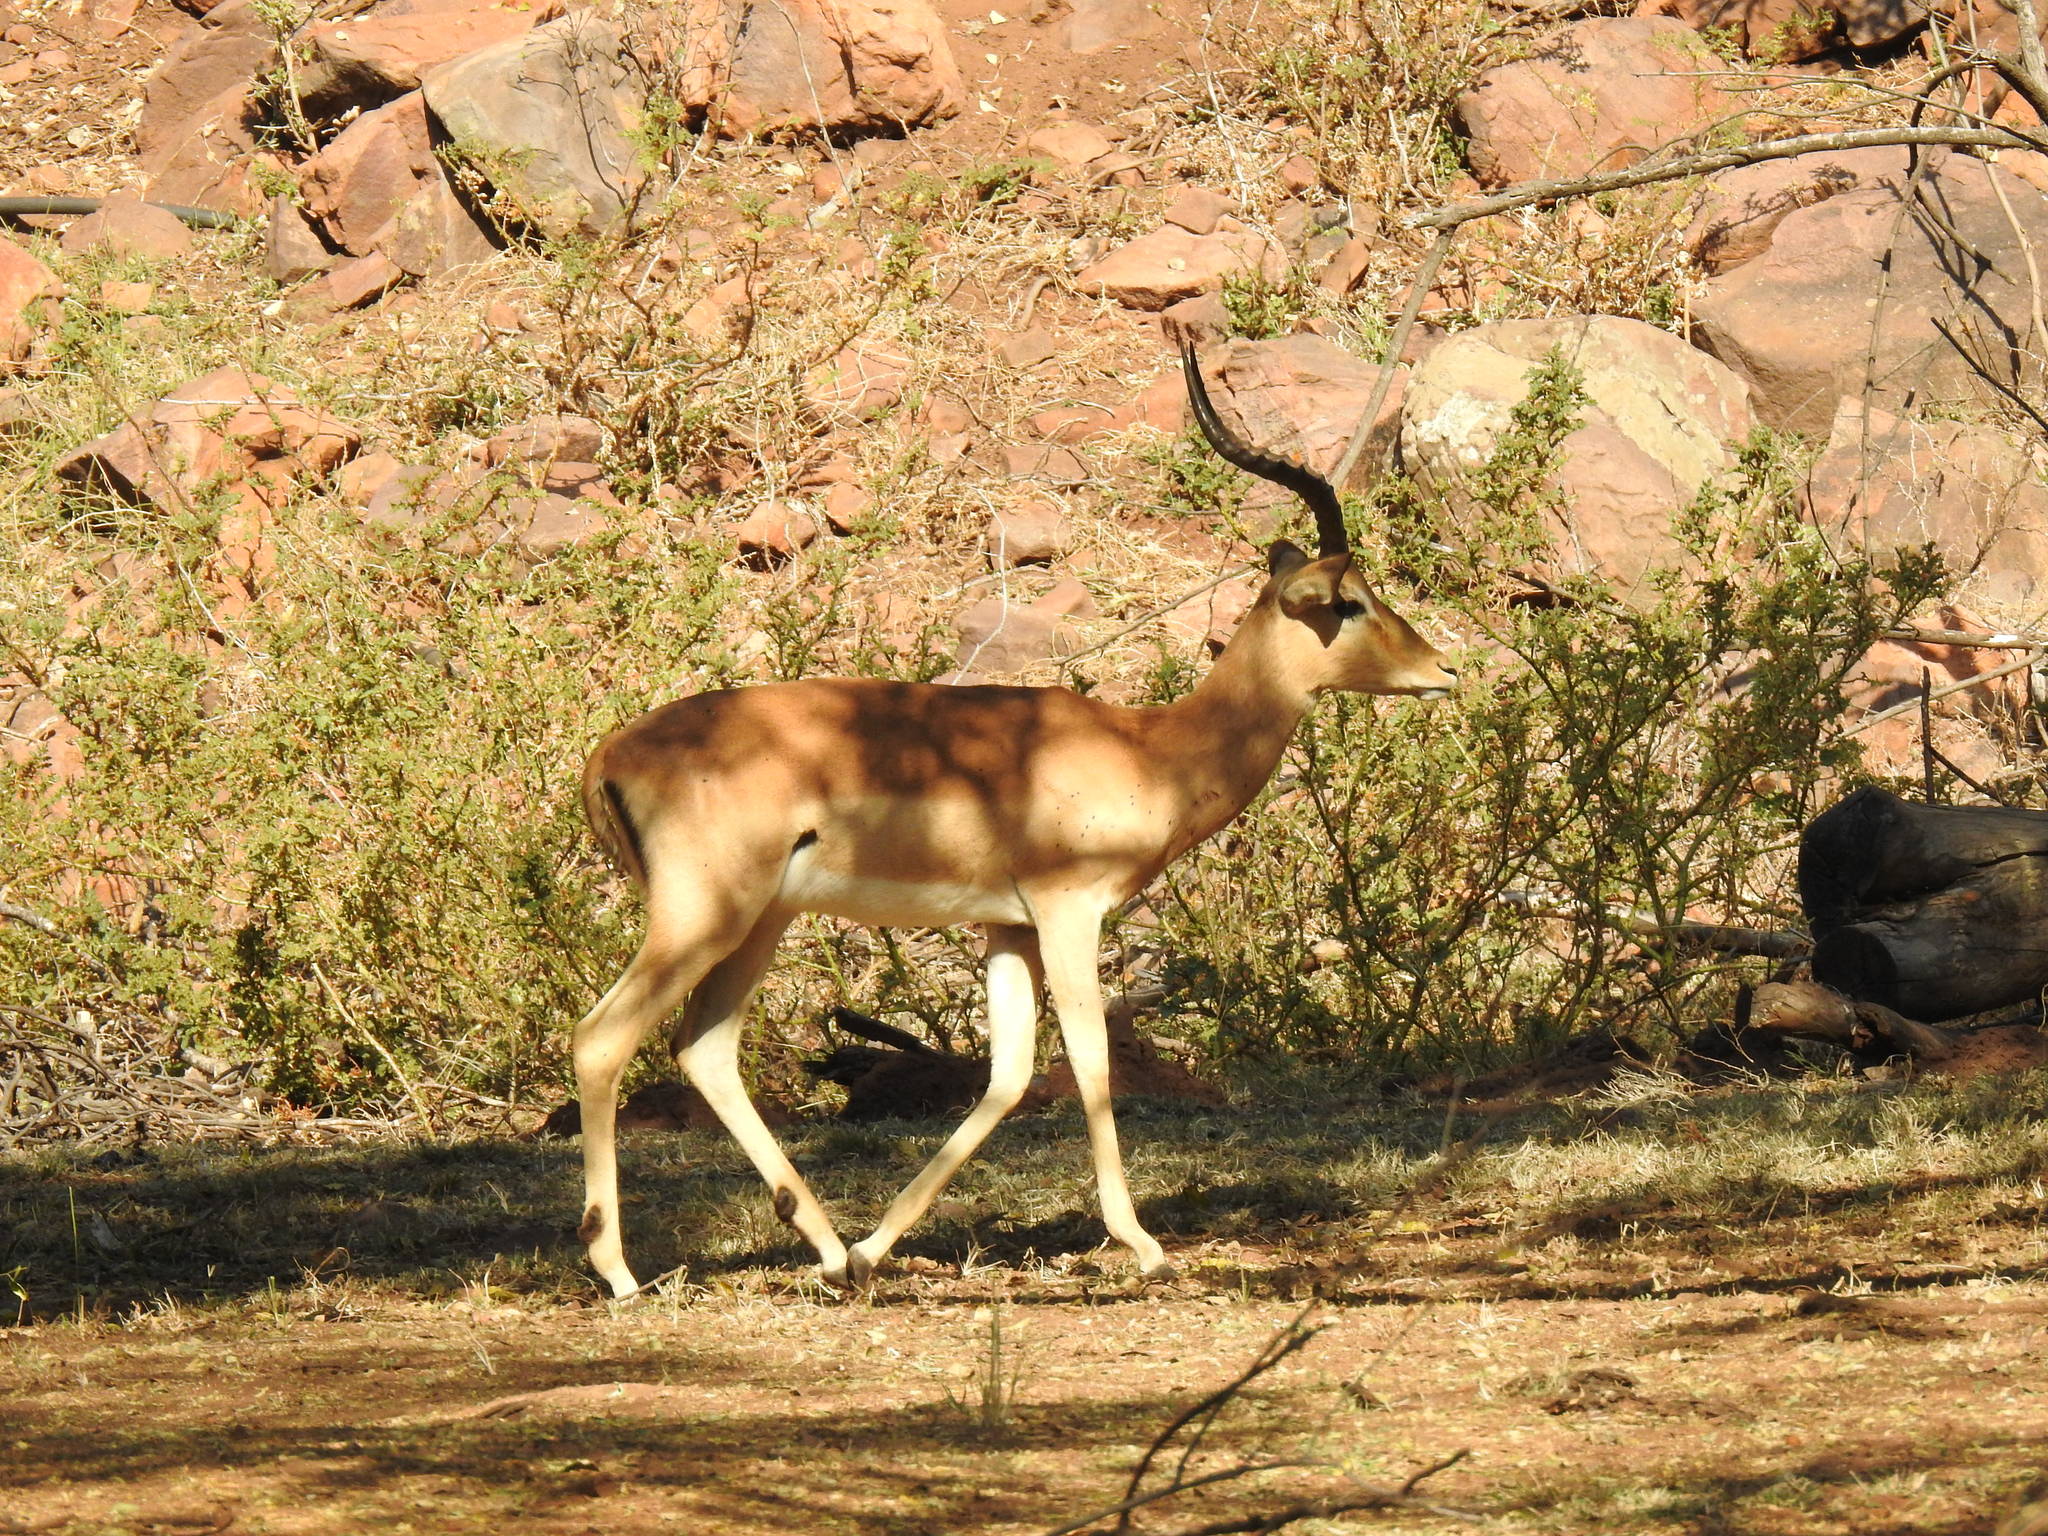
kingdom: Animalia
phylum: Chordata
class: Mammalia
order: Artiodactyla
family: Bovidae
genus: Aepyceros
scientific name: Aepyceros melampus
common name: Impala
